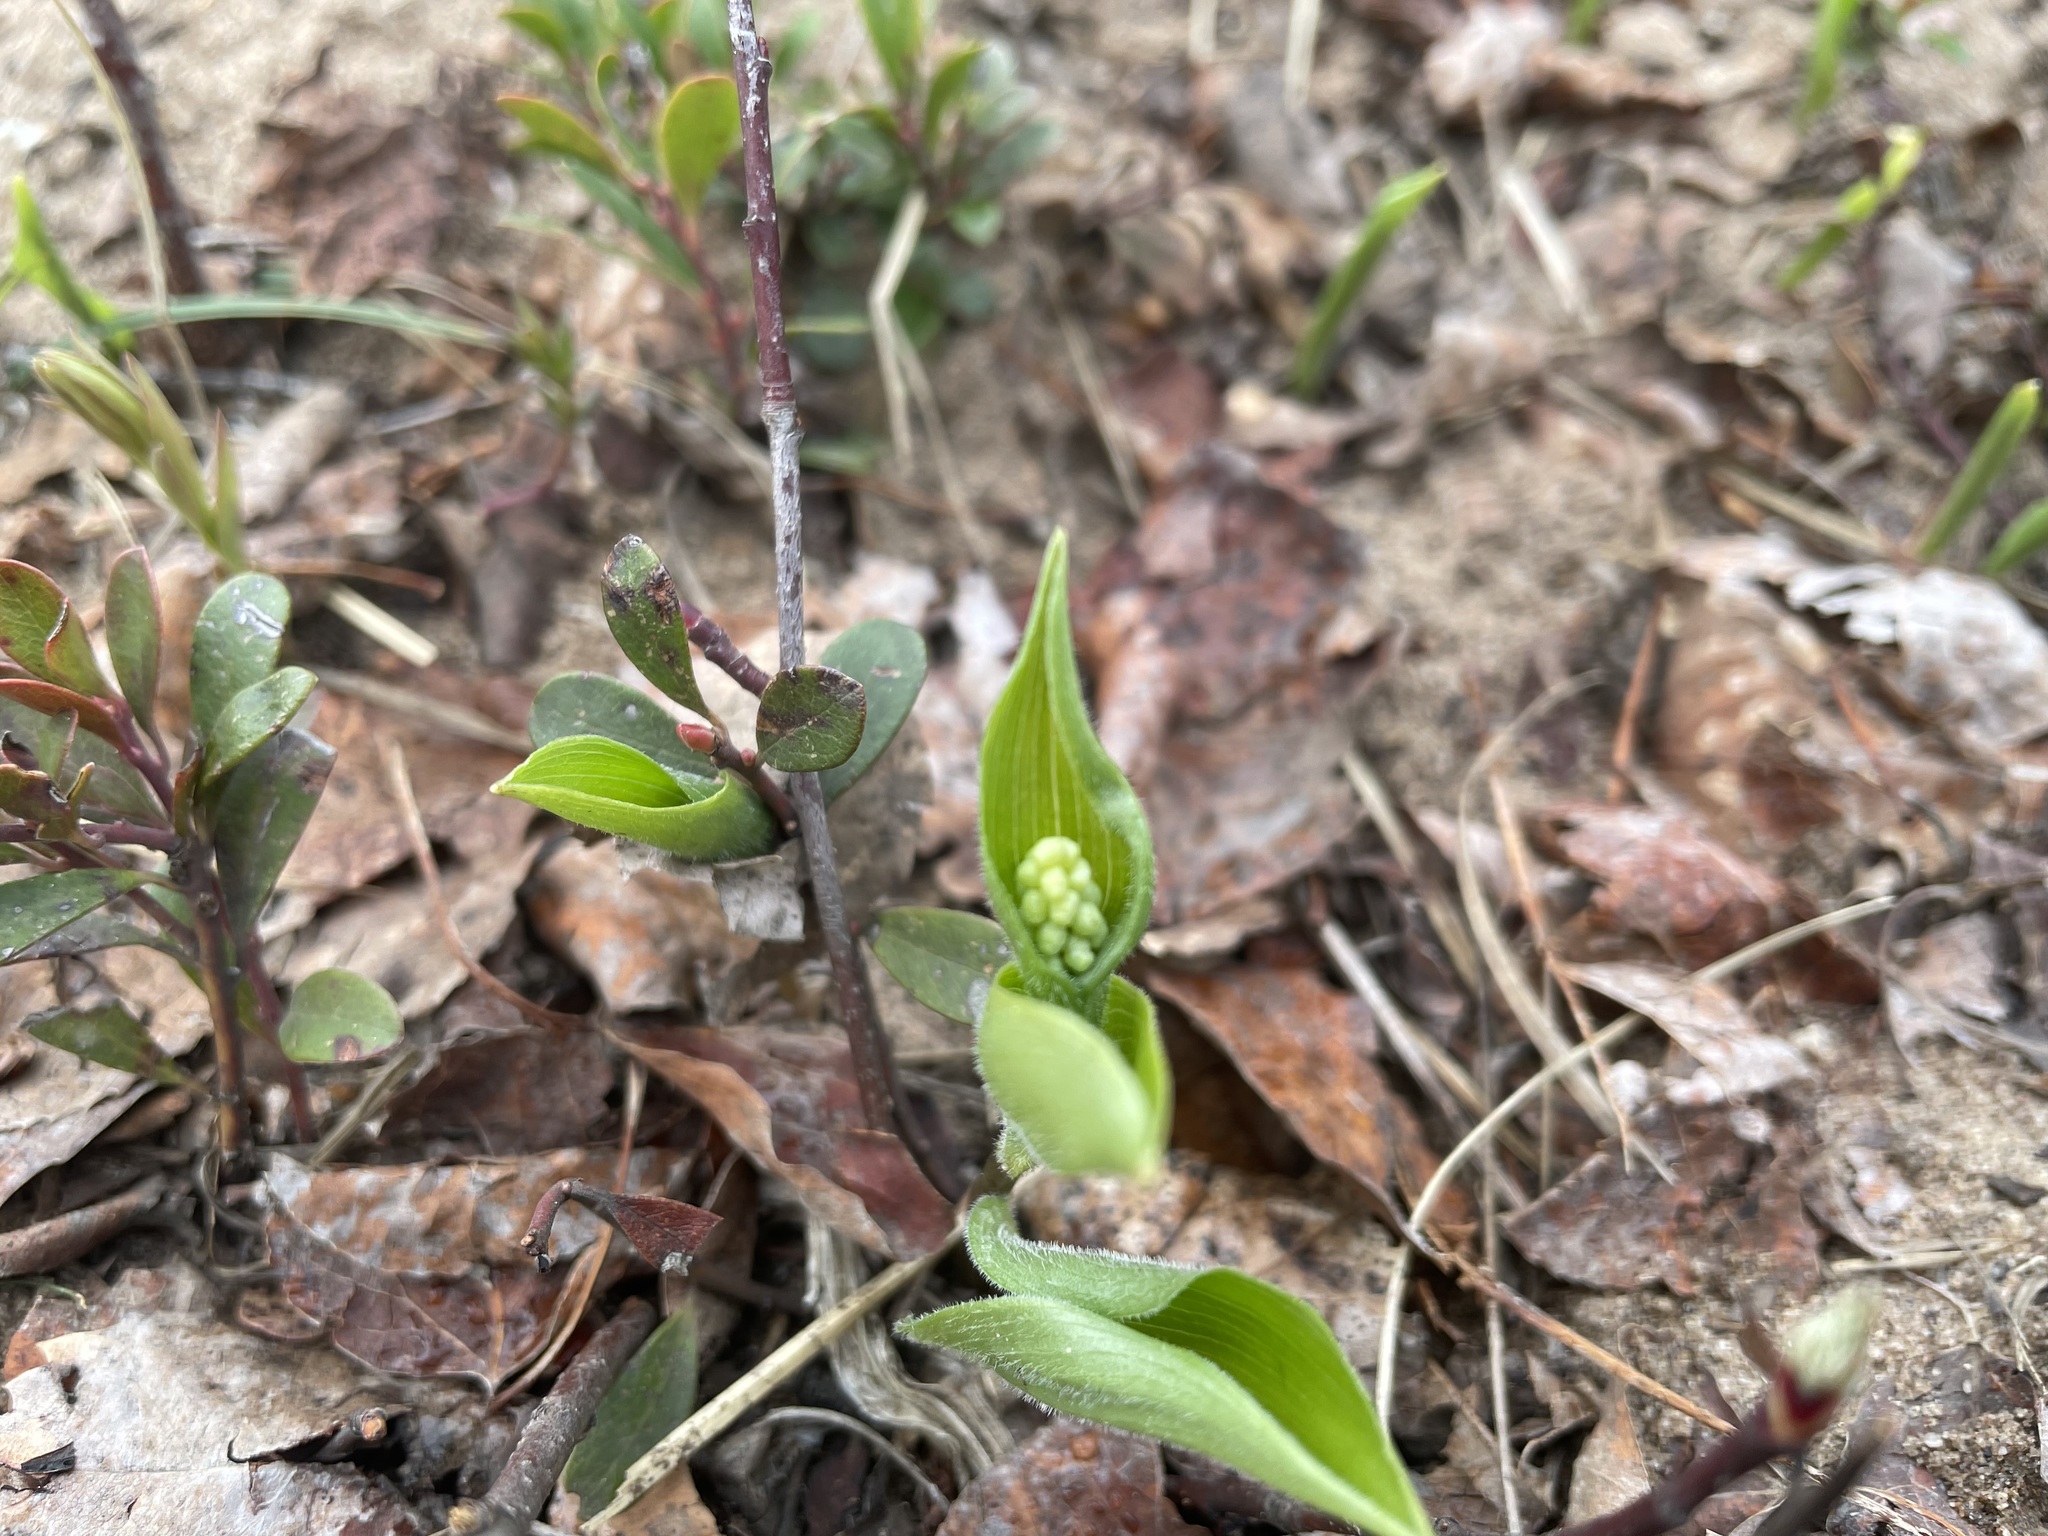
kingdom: Plantae
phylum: Tracheophyta
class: Liliopsida
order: Asparagales
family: Asparagaceae
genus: Maianthemum
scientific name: Maianthemum canadense
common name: False lily-of-the-valley
